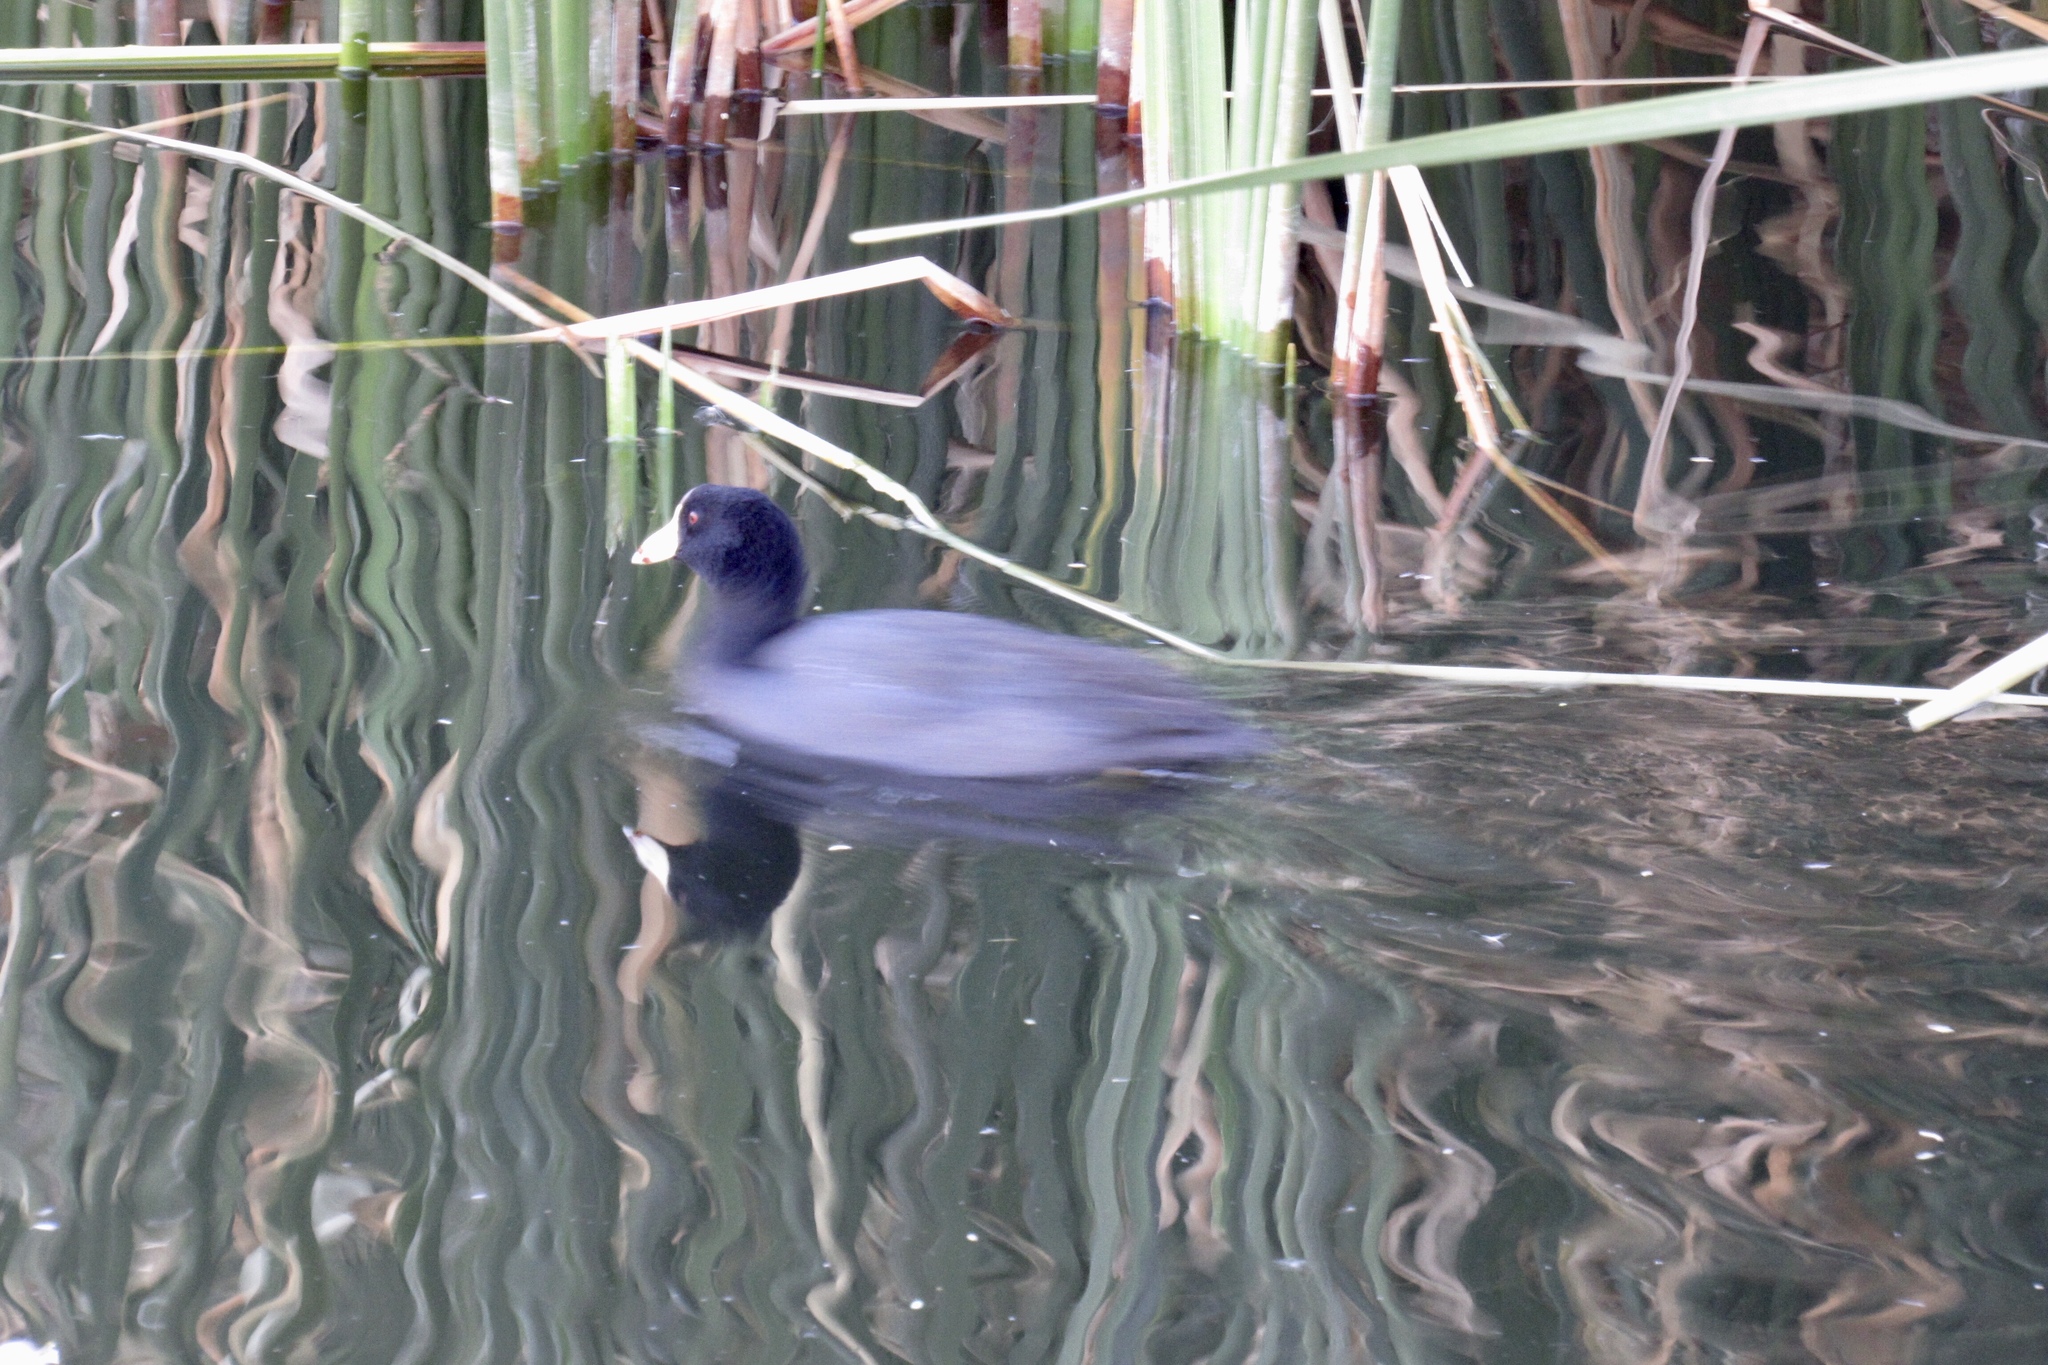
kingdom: Animalia
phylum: Chordata
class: Aves
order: Gruiformes
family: Rallidae
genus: Fulica
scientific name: Fulica americana
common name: American coot
